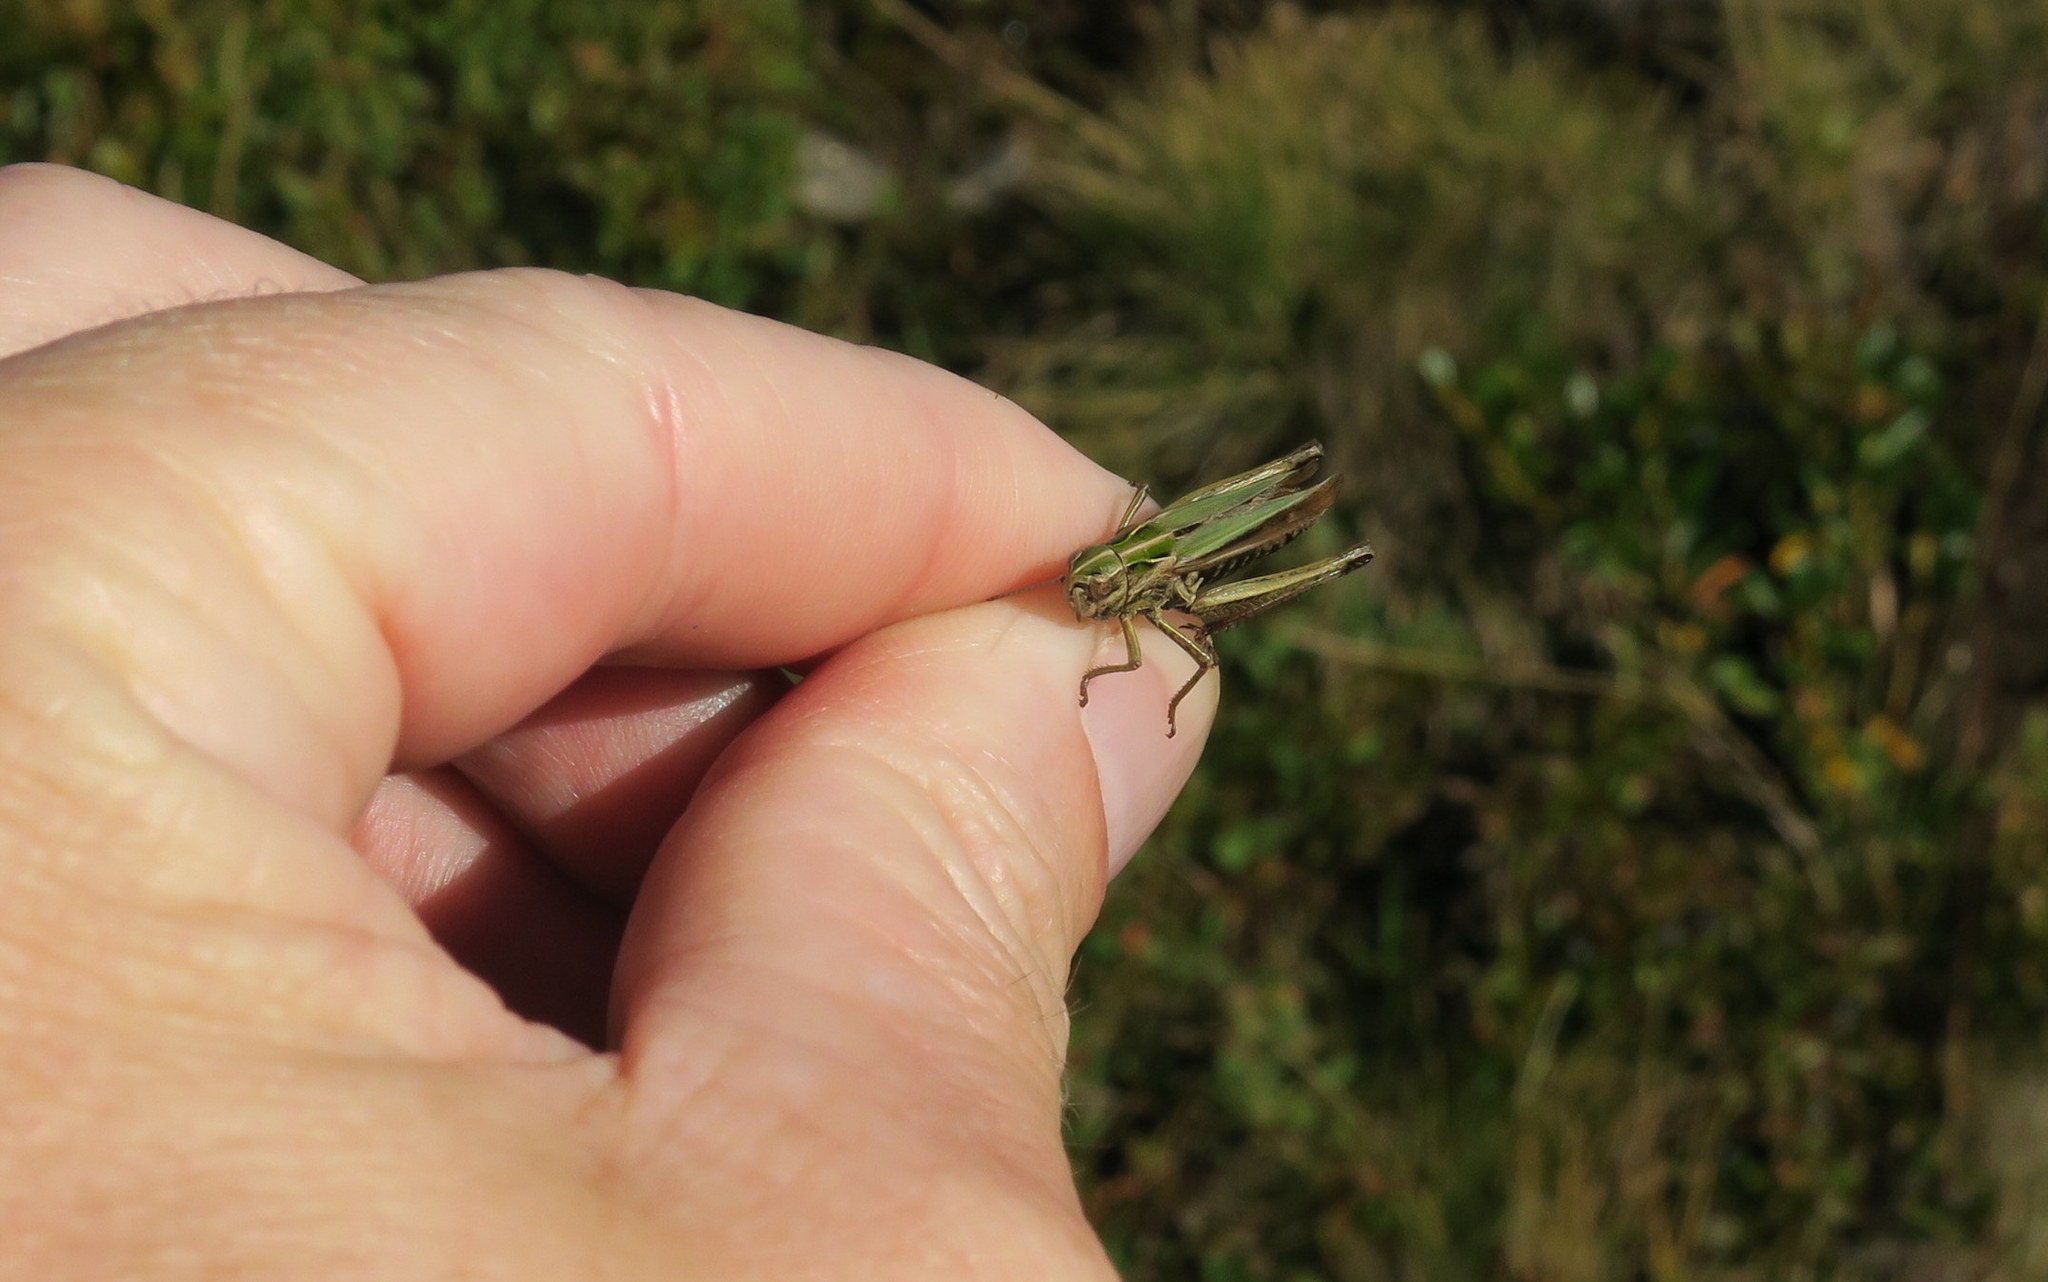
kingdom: Animalia
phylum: Arthropoda
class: Insecta
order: Orthoptera
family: Acrididae
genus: Omocestus
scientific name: Omocestus viridulus
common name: Common green grasshopper
